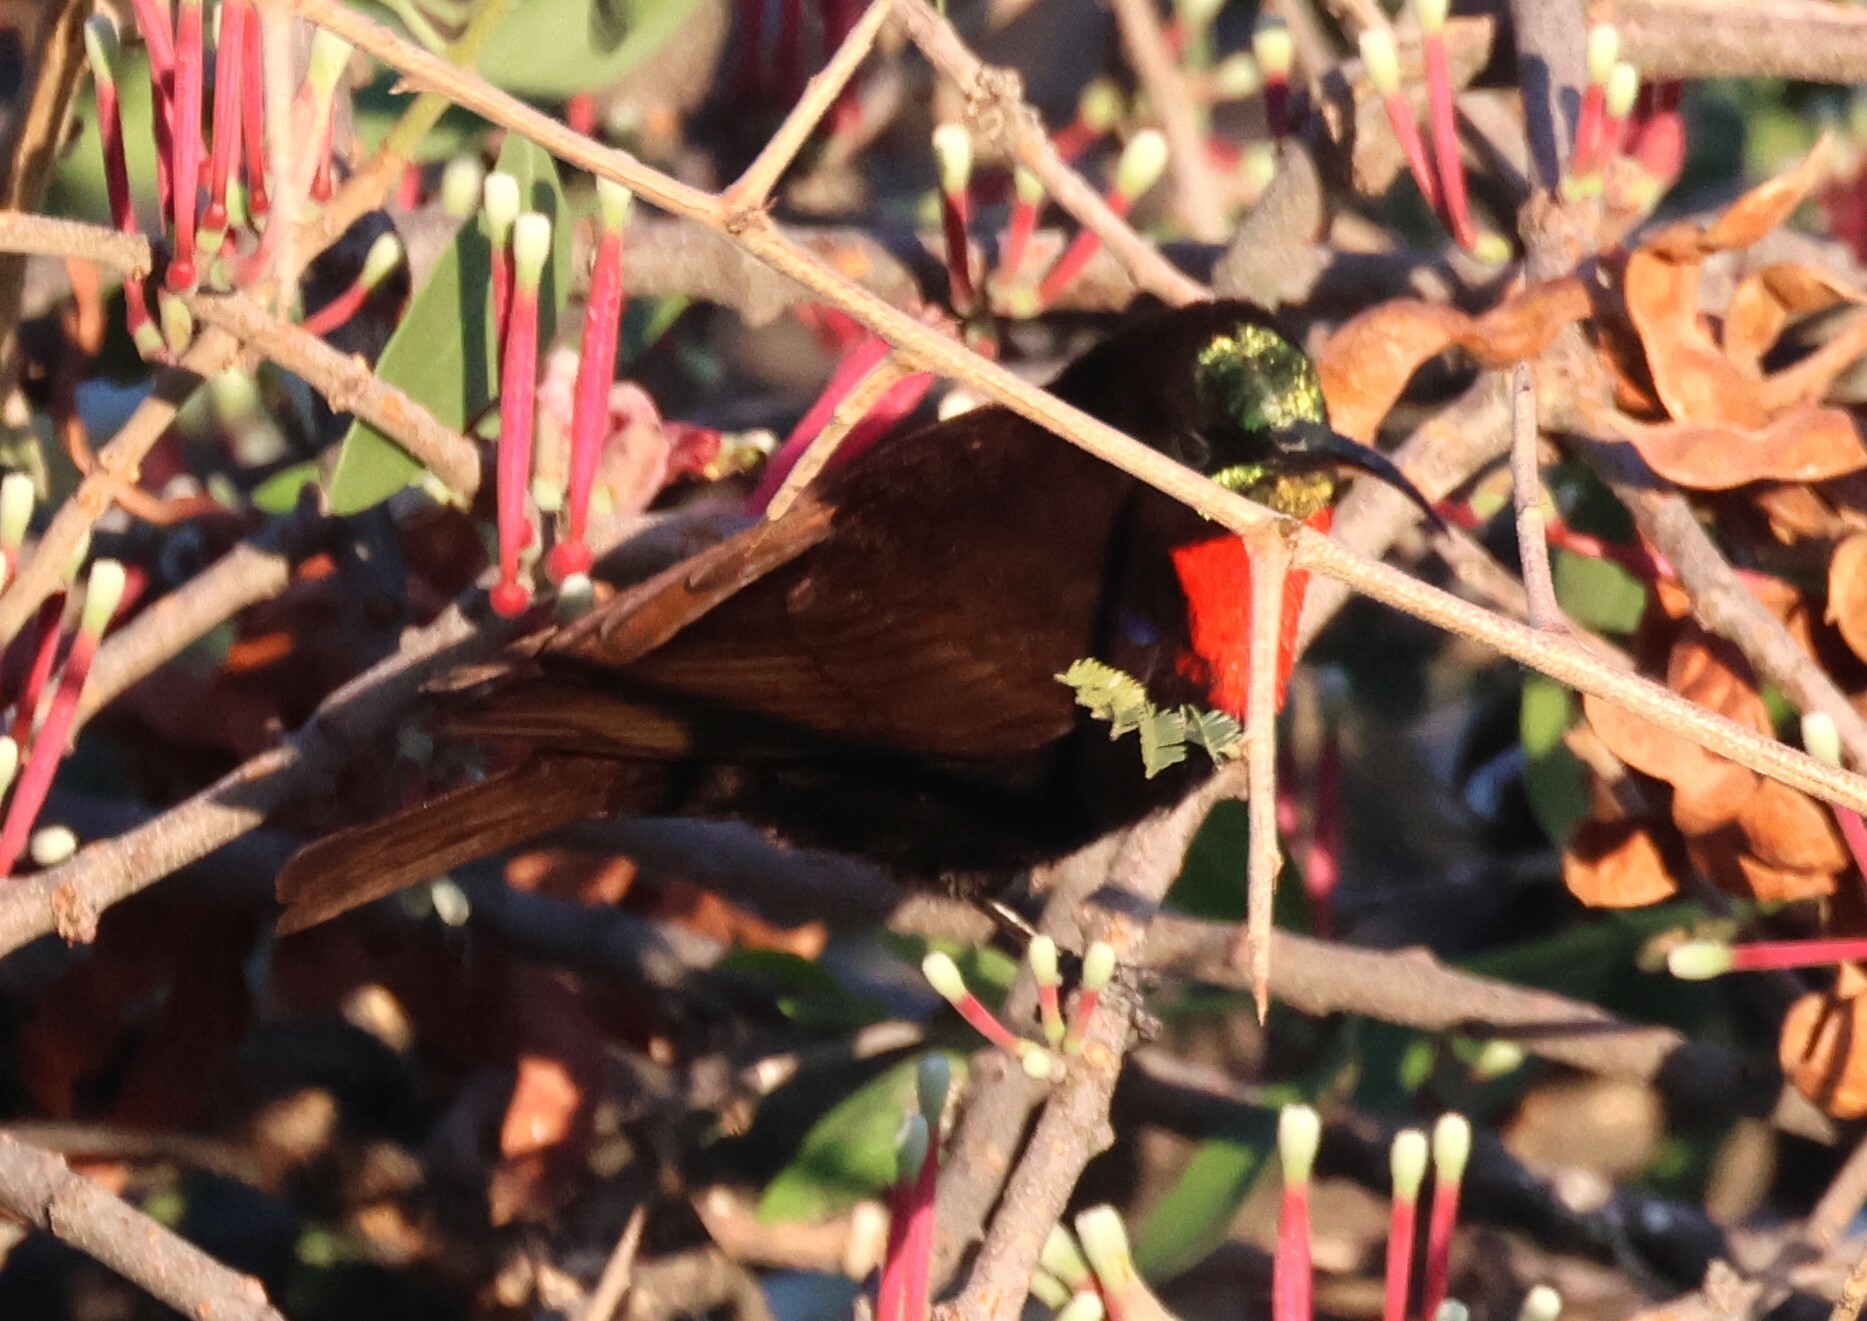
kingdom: Animalia
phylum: Chordata
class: Aves
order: Passeriformes
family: Nectariniidae
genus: Chalcomitra
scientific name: Chalcomitra senegalensis
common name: Scarlet-chested sunbird
